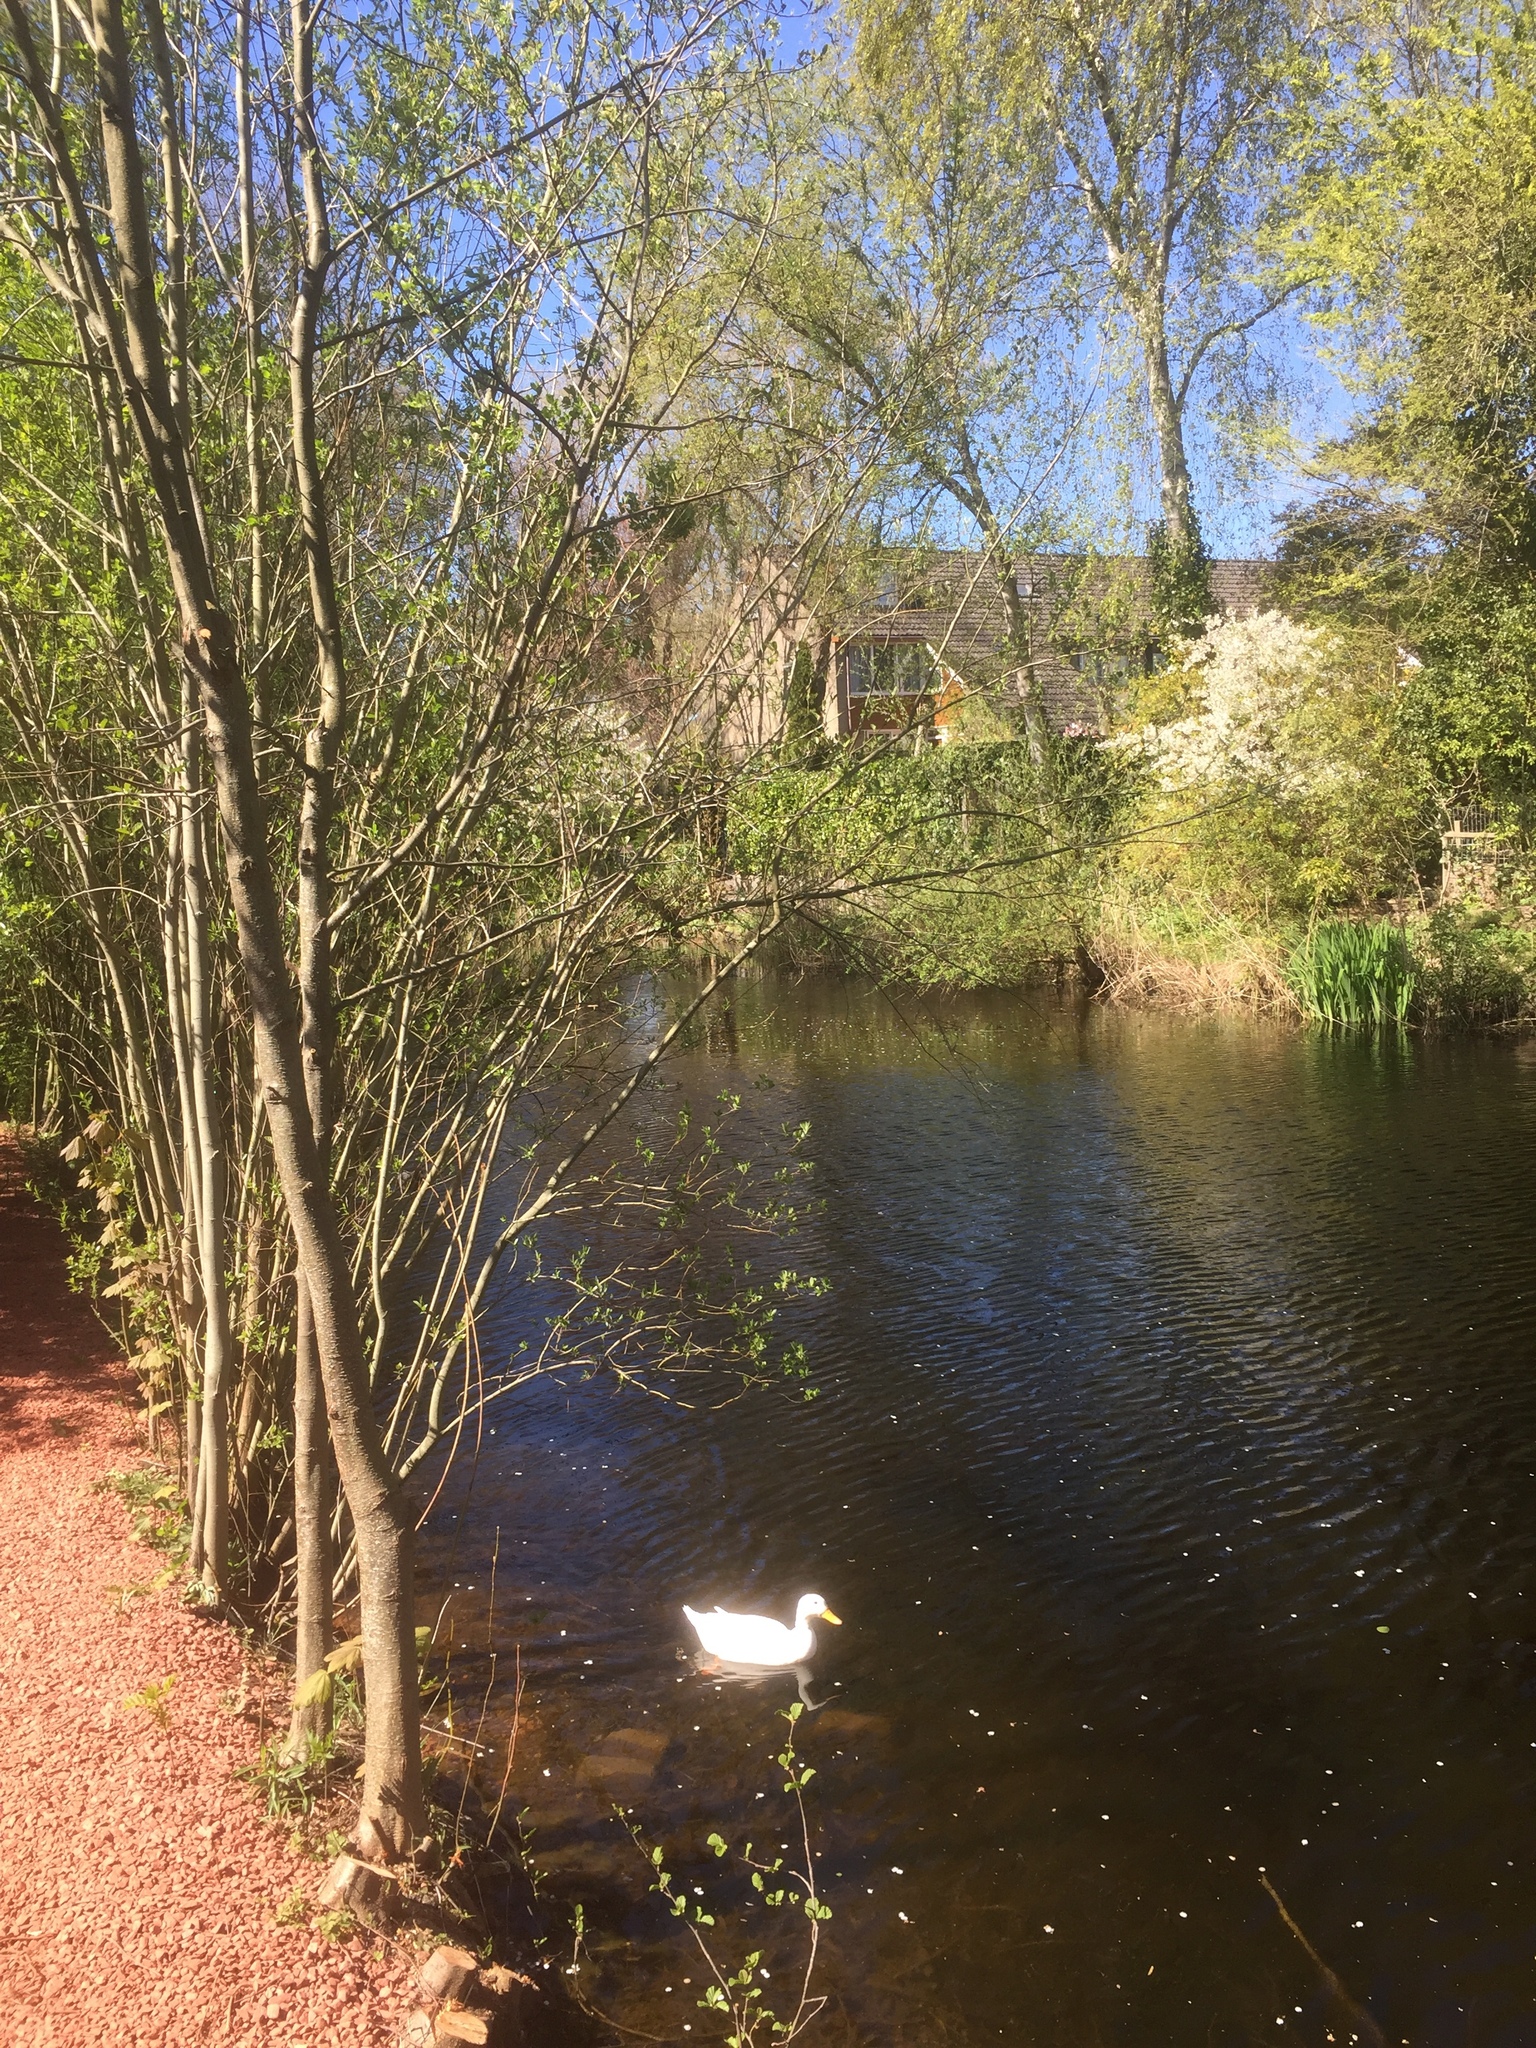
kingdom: Animalia
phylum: Chordata
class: Aves
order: Anseriformes
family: Anatidae
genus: Anas
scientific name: Anas platyrhynchos
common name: Mallard
